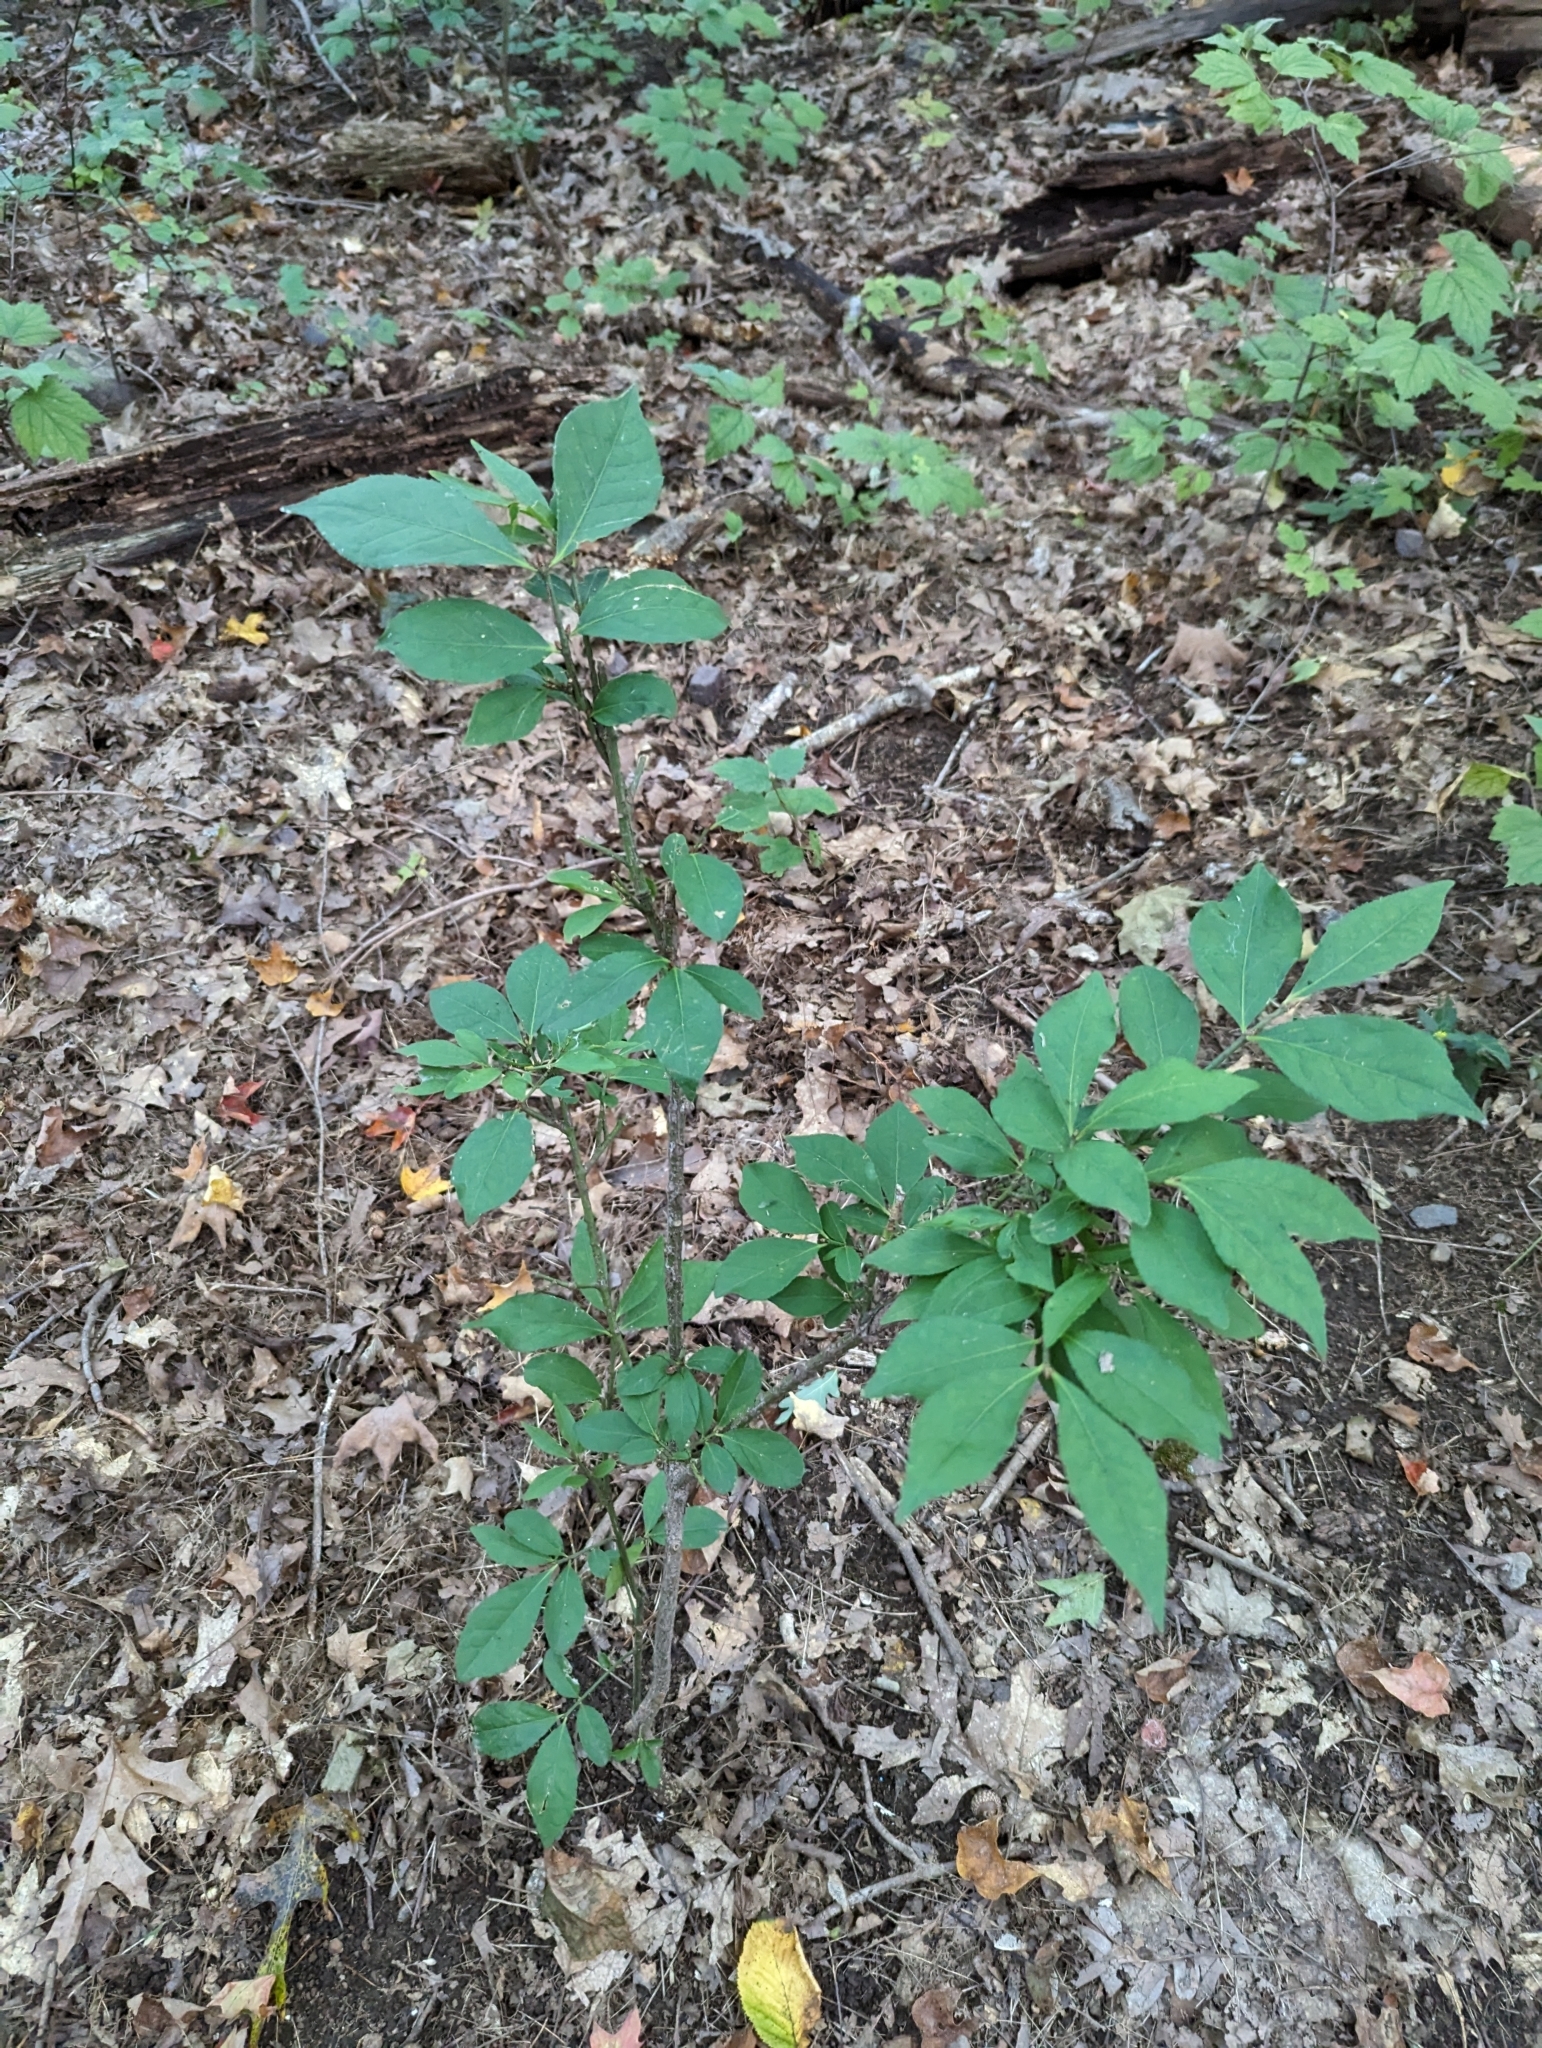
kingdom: Plantae
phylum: Tracheophyta
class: Magnoliopsida
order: Celastrales
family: Celastraceae
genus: Euonymus
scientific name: Euonymus alatus
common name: Winged euonymus
